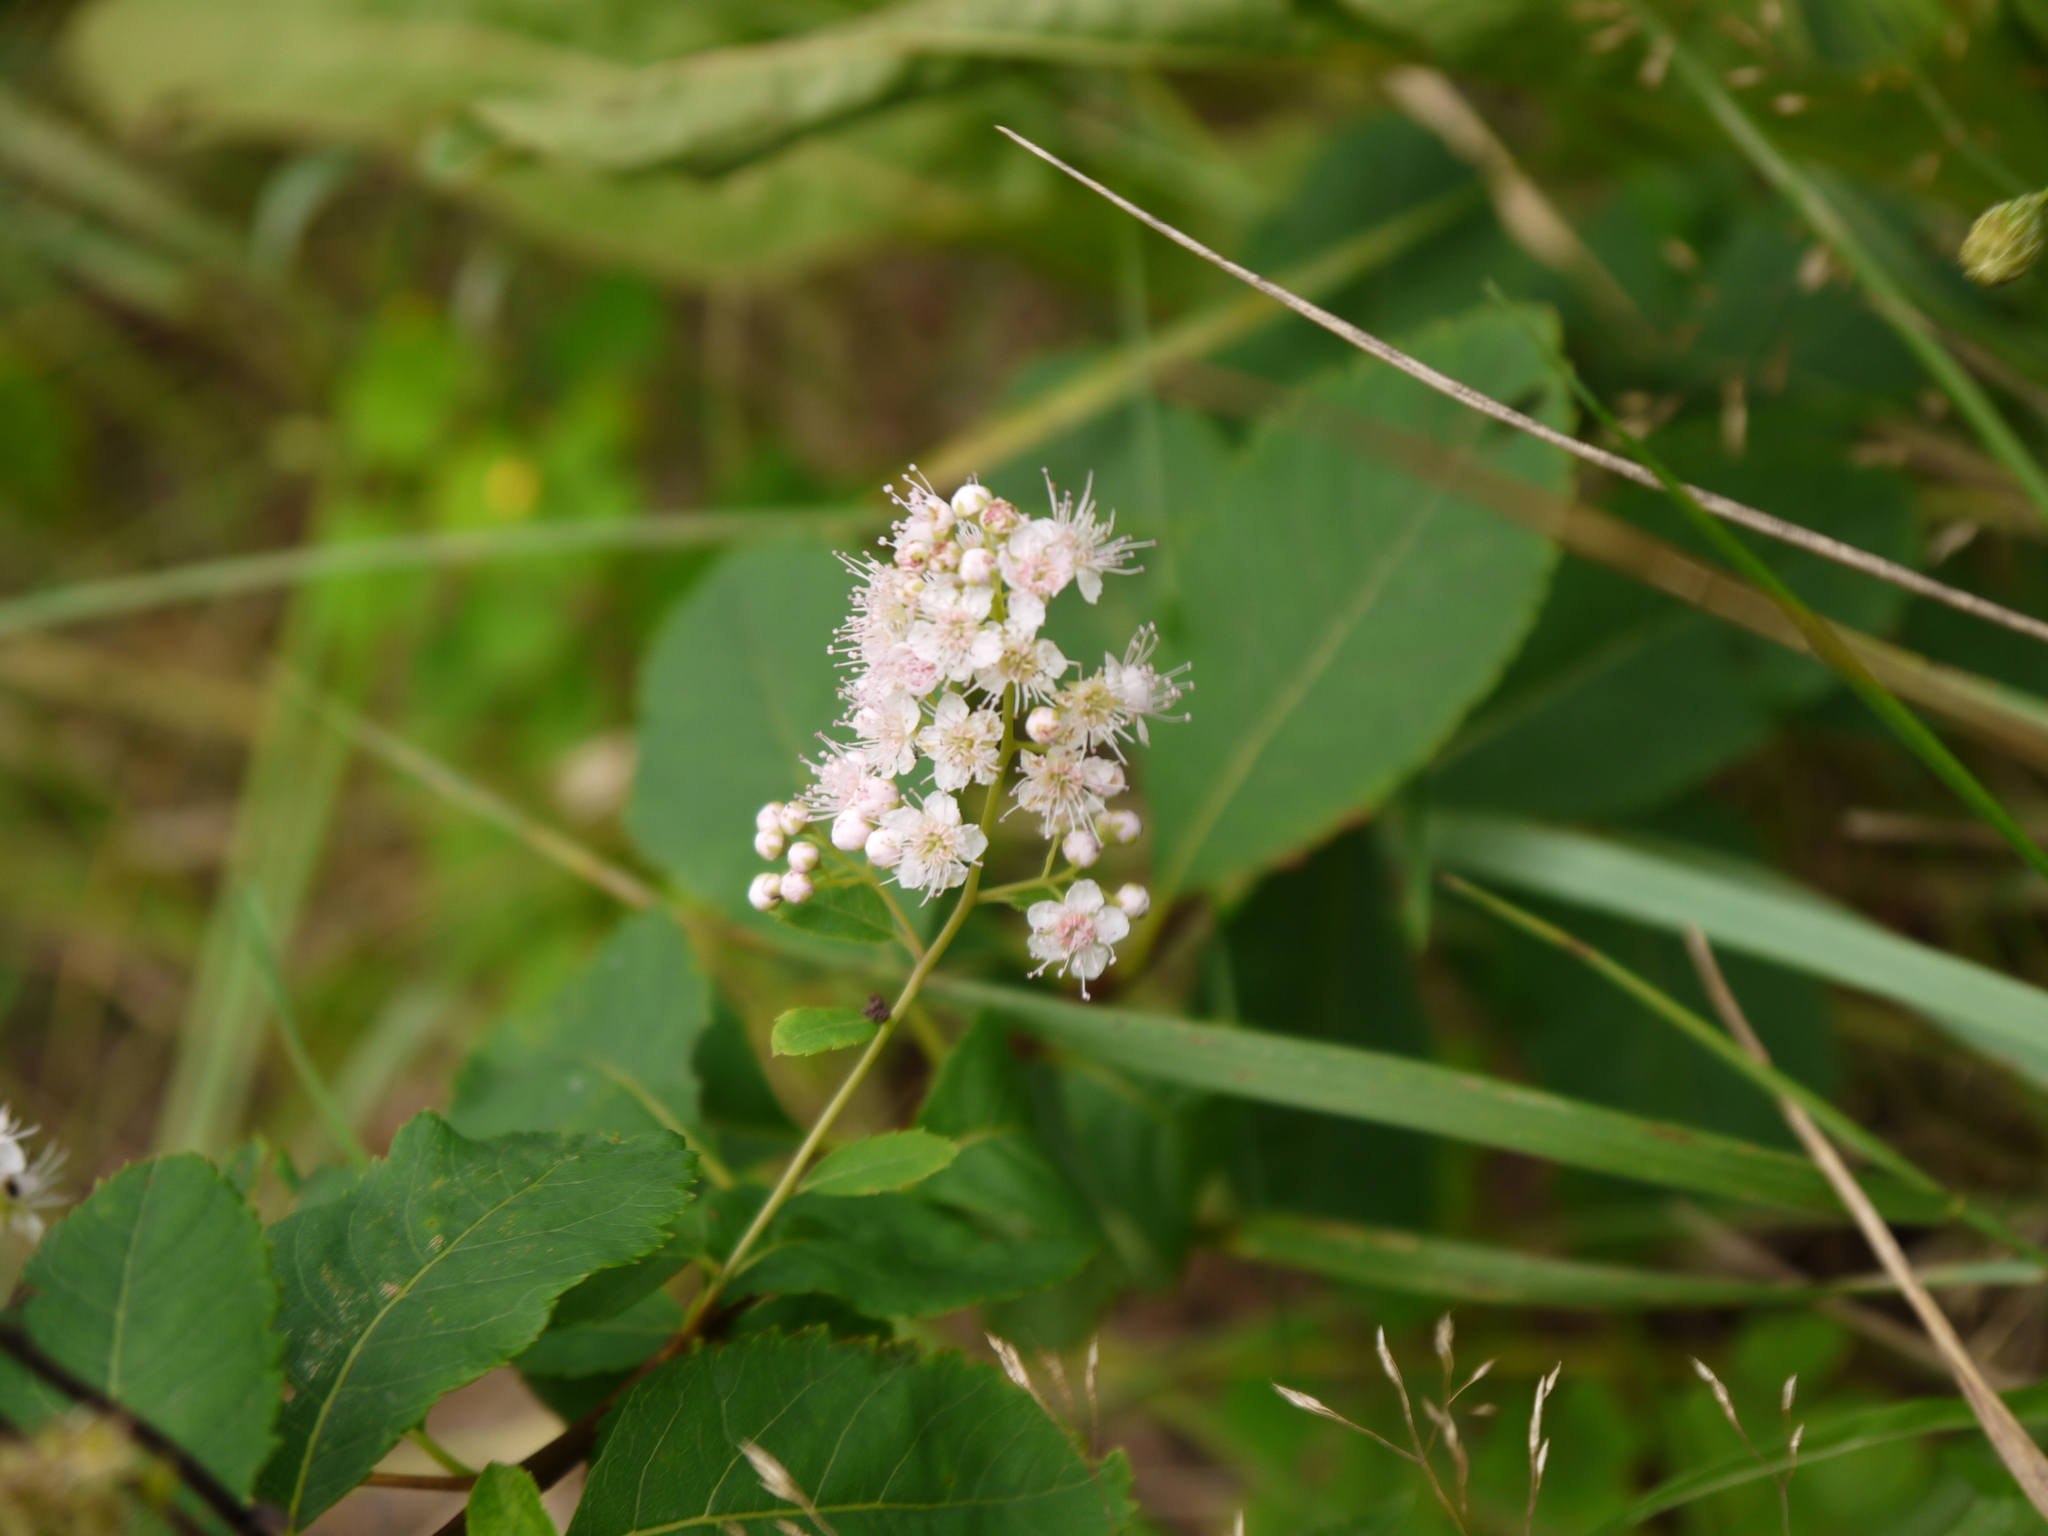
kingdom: Plantae
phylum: Tracheophyta
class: Magnoliopsida
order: Rosales
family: Rosaceae
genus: Spiraea
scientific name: Spiraea alba
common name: Pale bridewort
